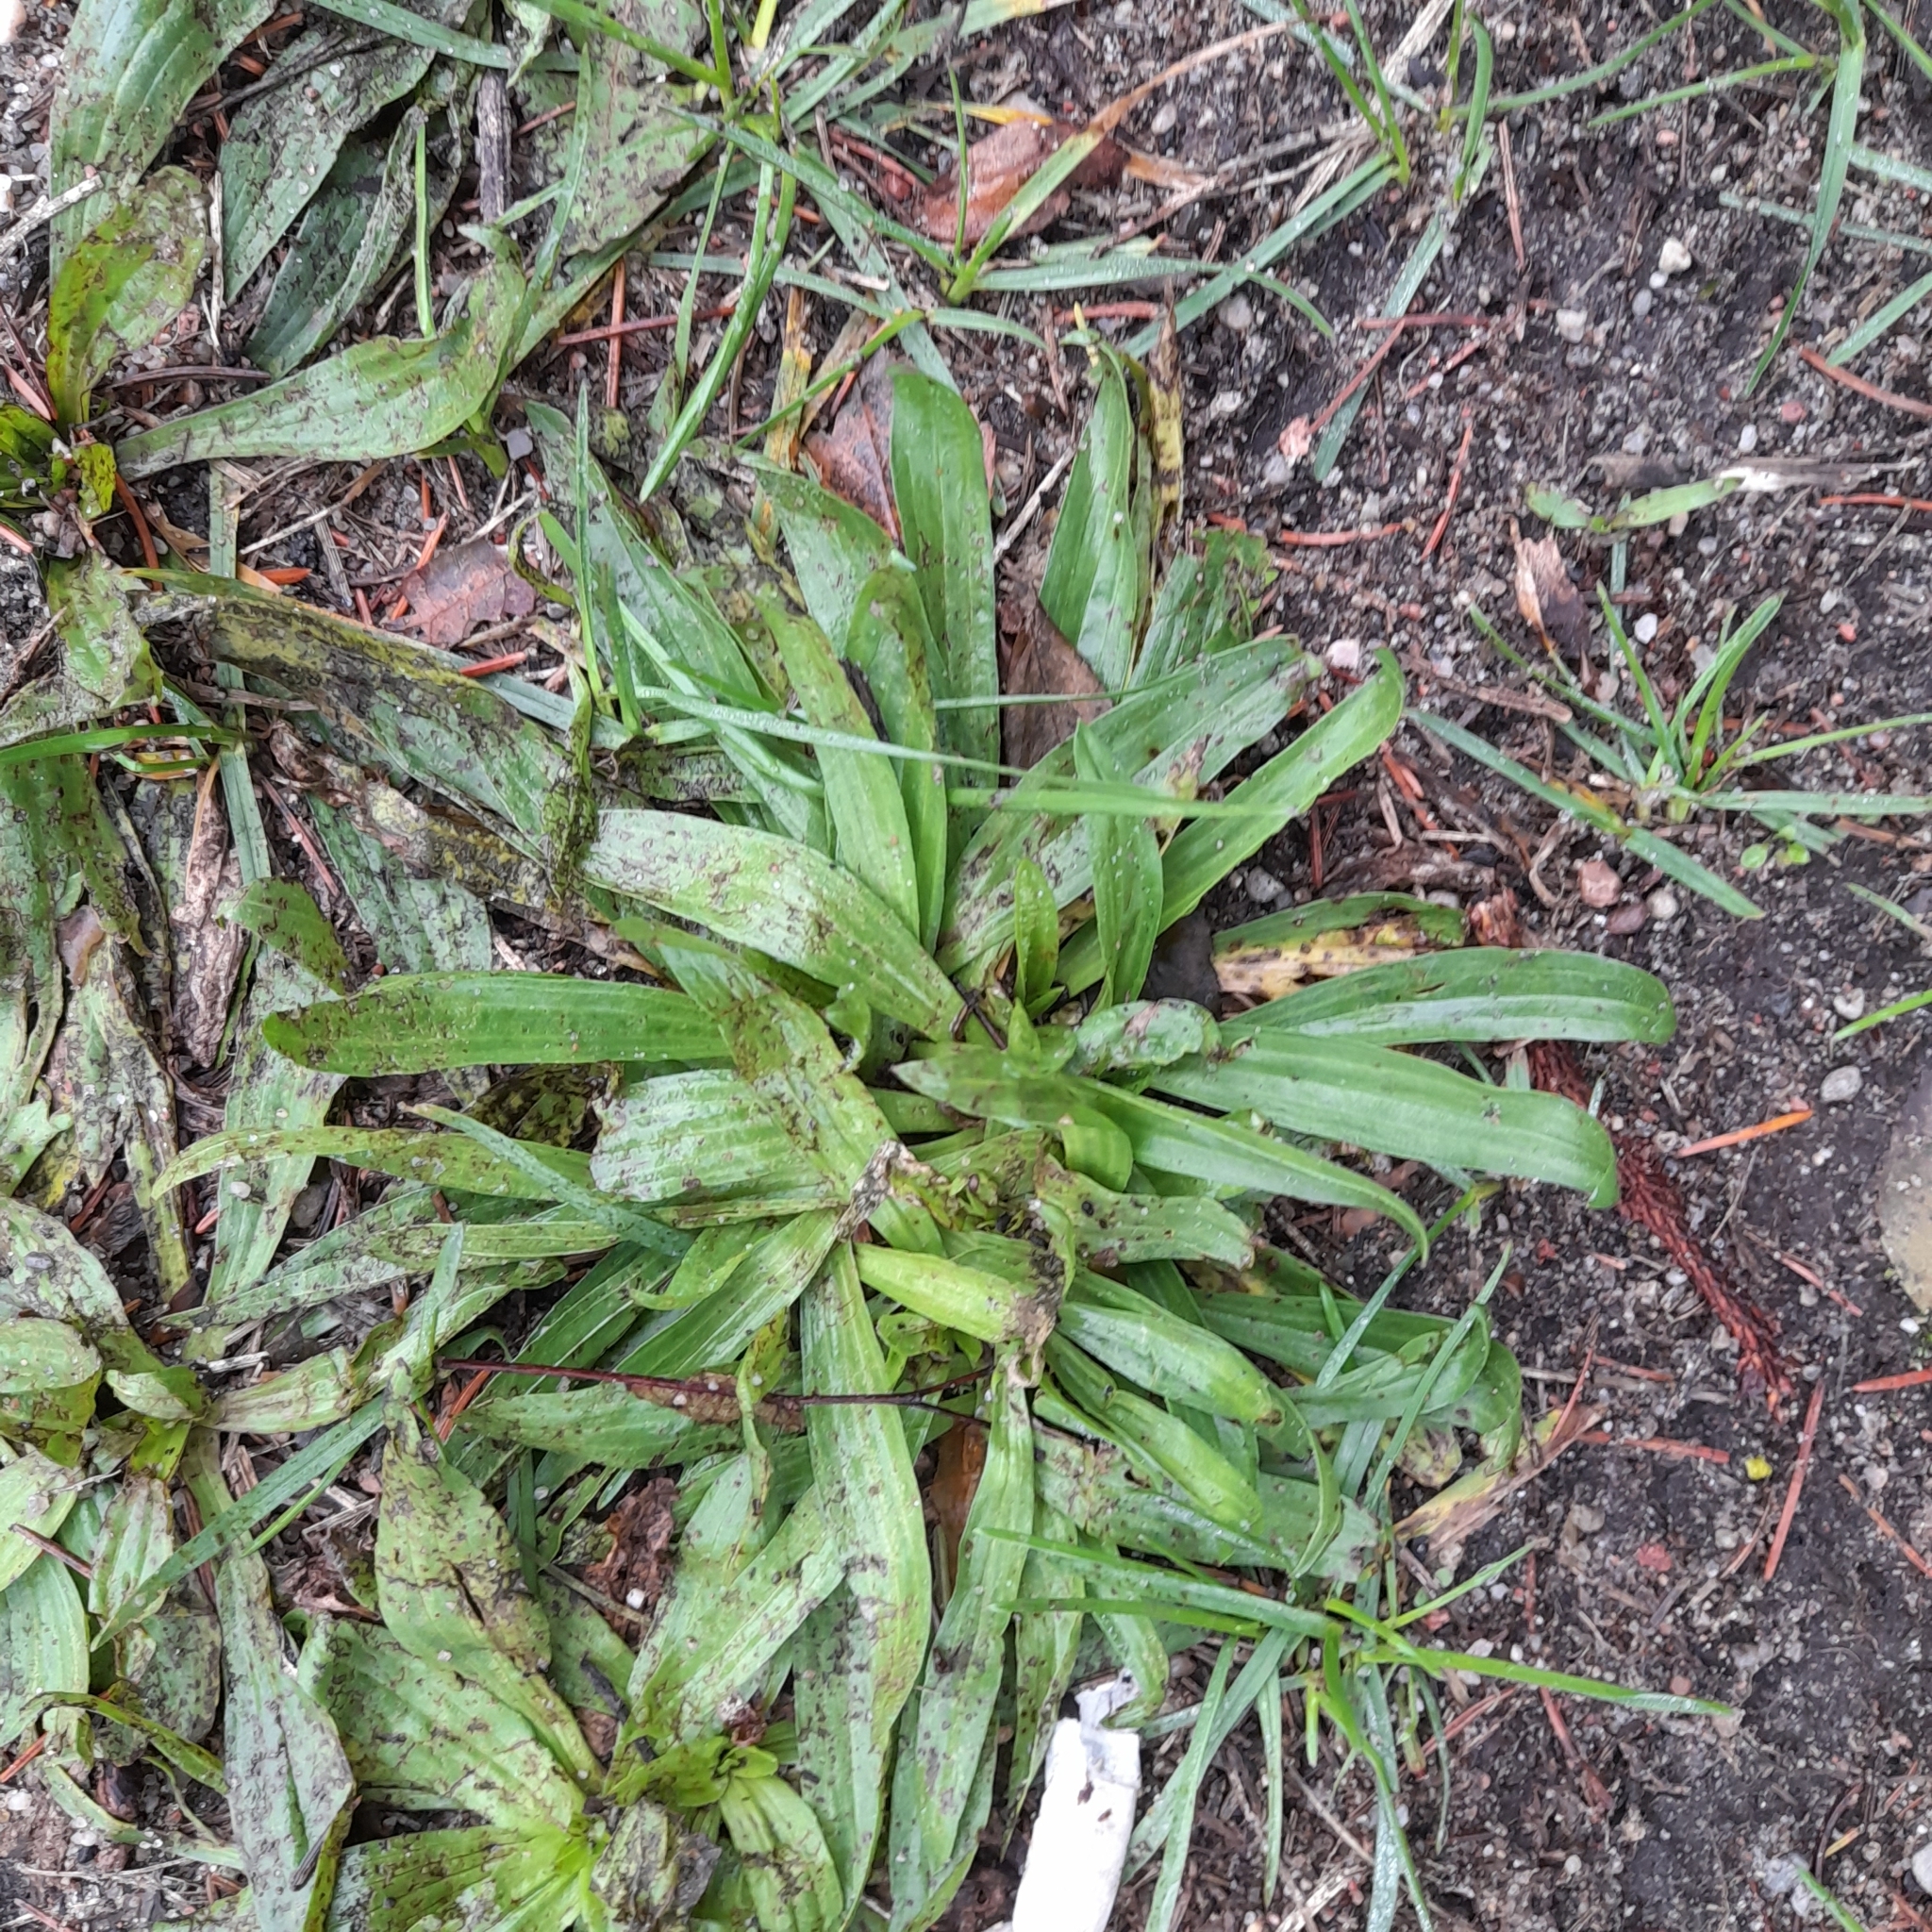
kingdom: Plantae
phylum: Tracheophyta
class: Magnoliopsida
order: Lamiales
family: Plantaginaceae
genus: Plantago
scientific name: Plantago lanceolata
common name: Ribwort plantain
